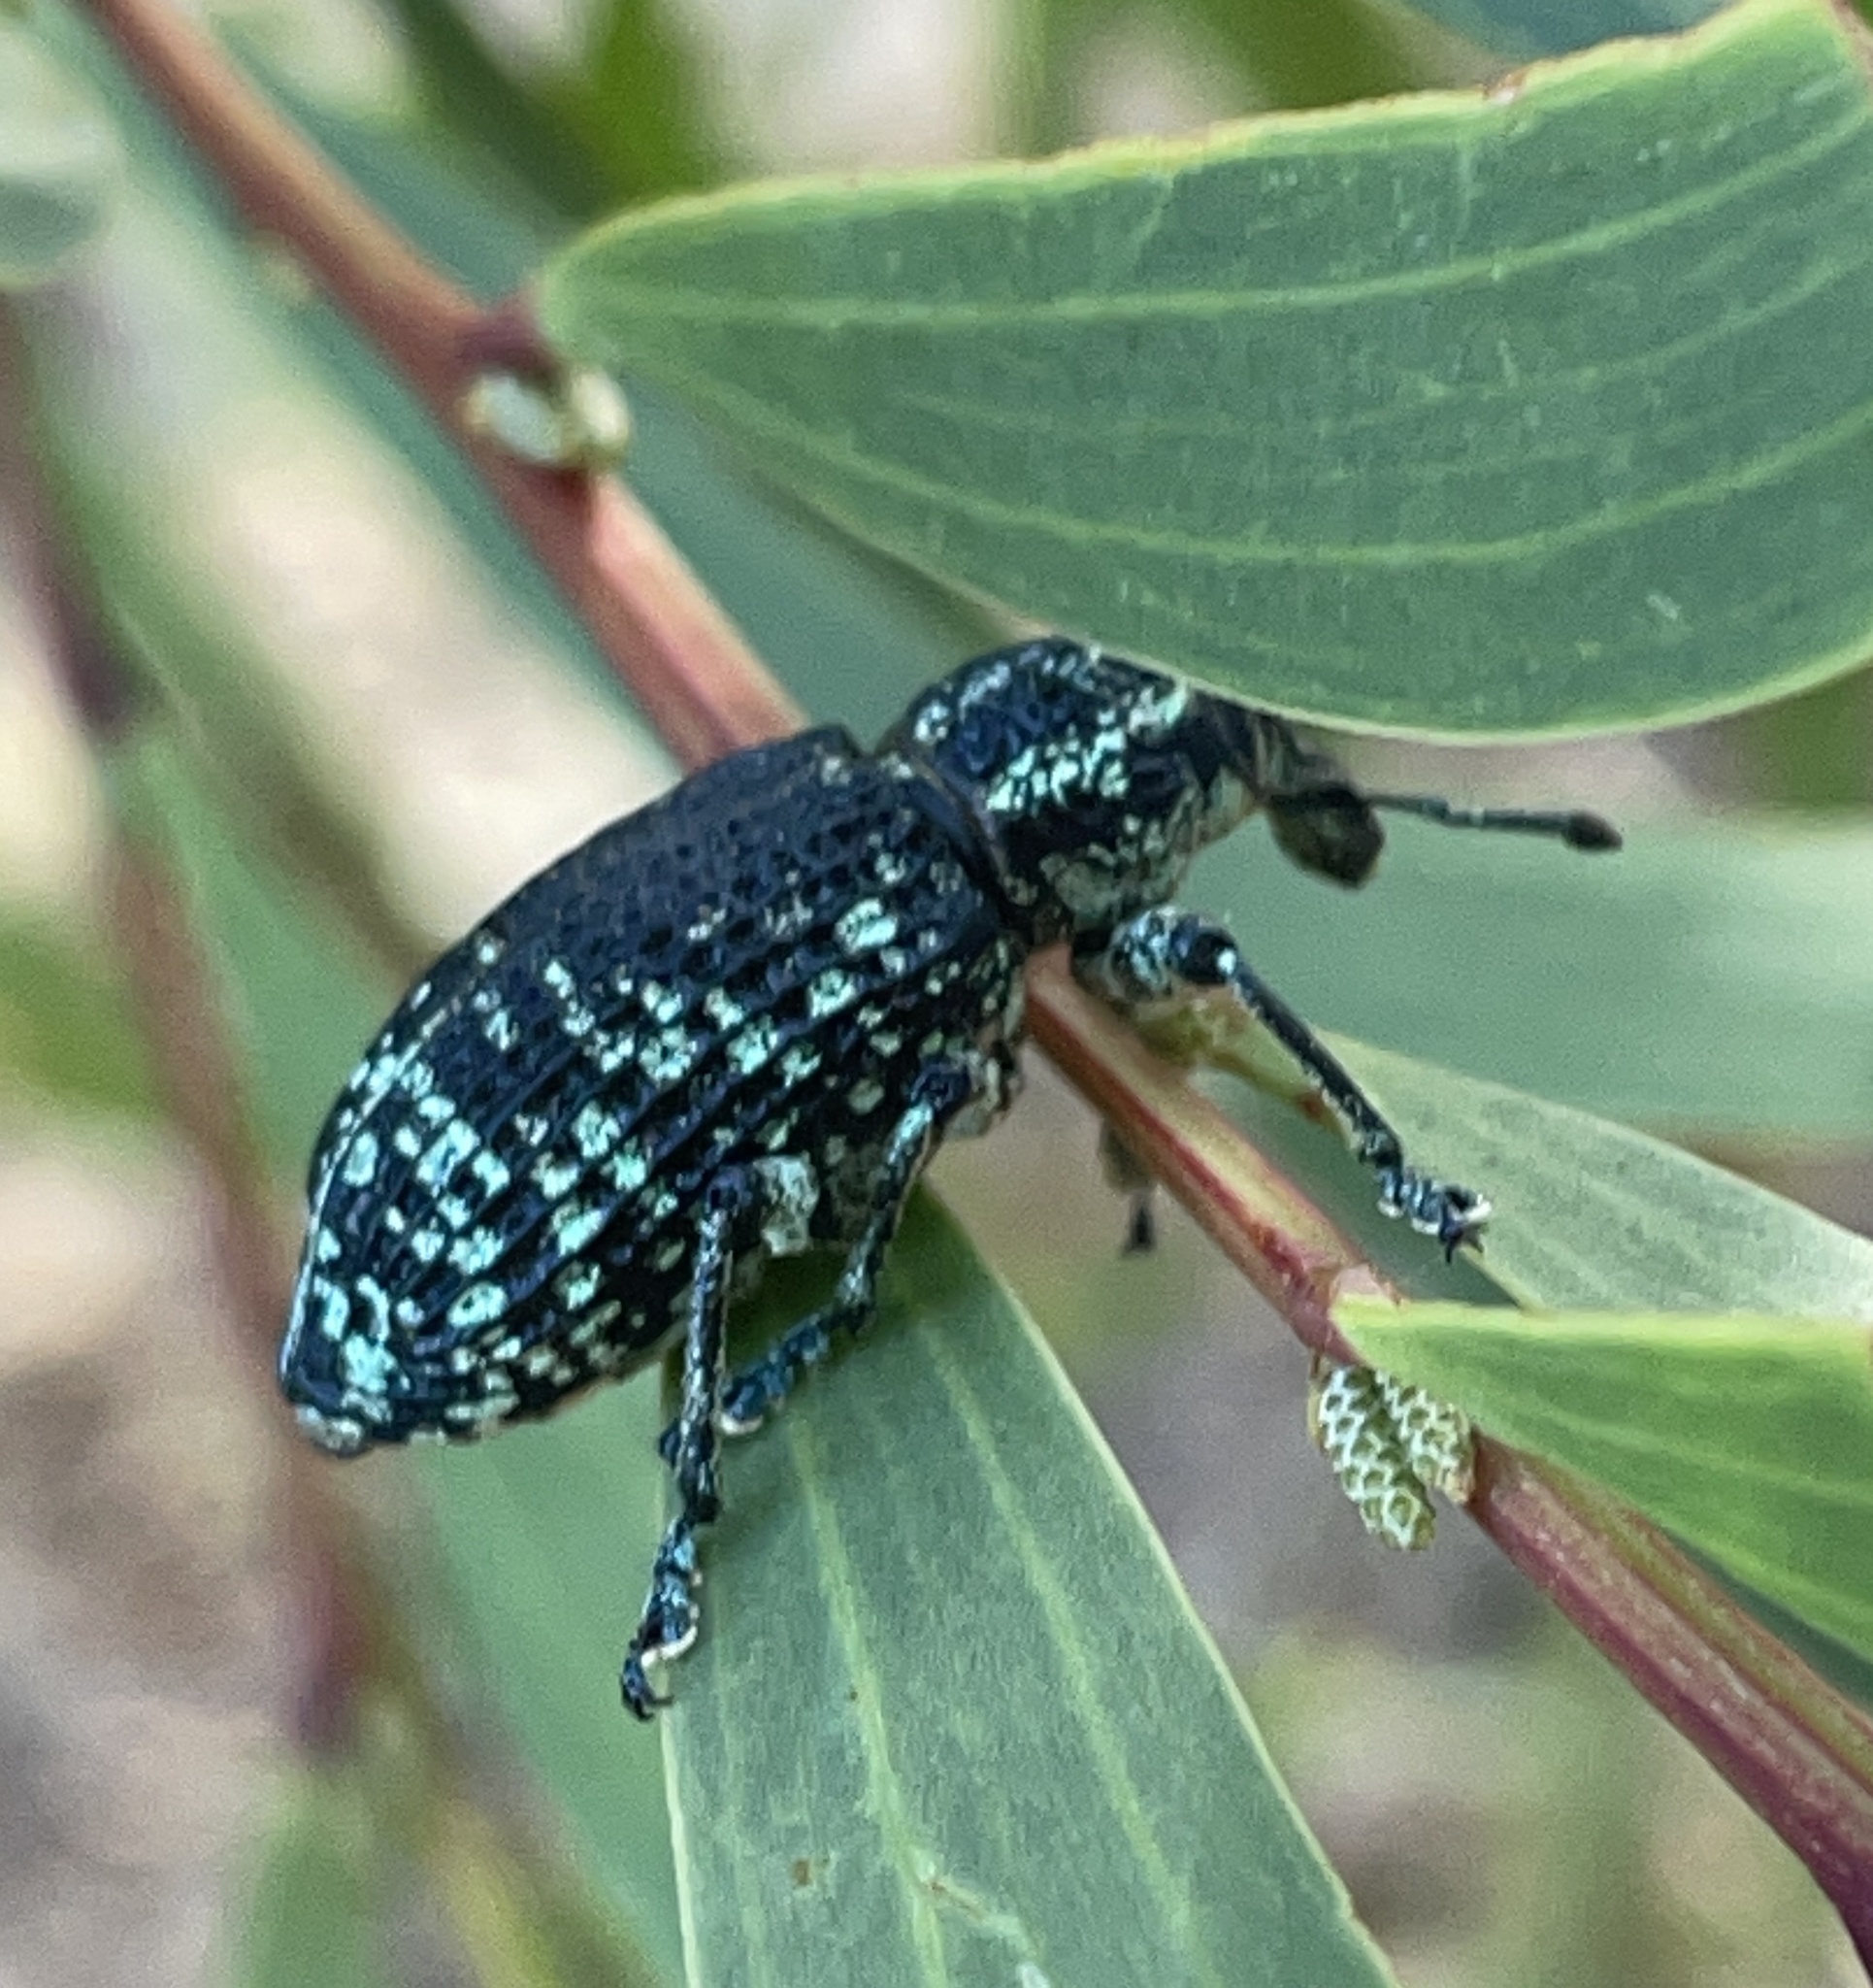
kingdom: Animalia
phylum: Arthropoda
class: Insecta
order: Coleoptera
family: Curculionidae
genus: Chrysolopus
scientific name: Chrysolopus spectabilis
